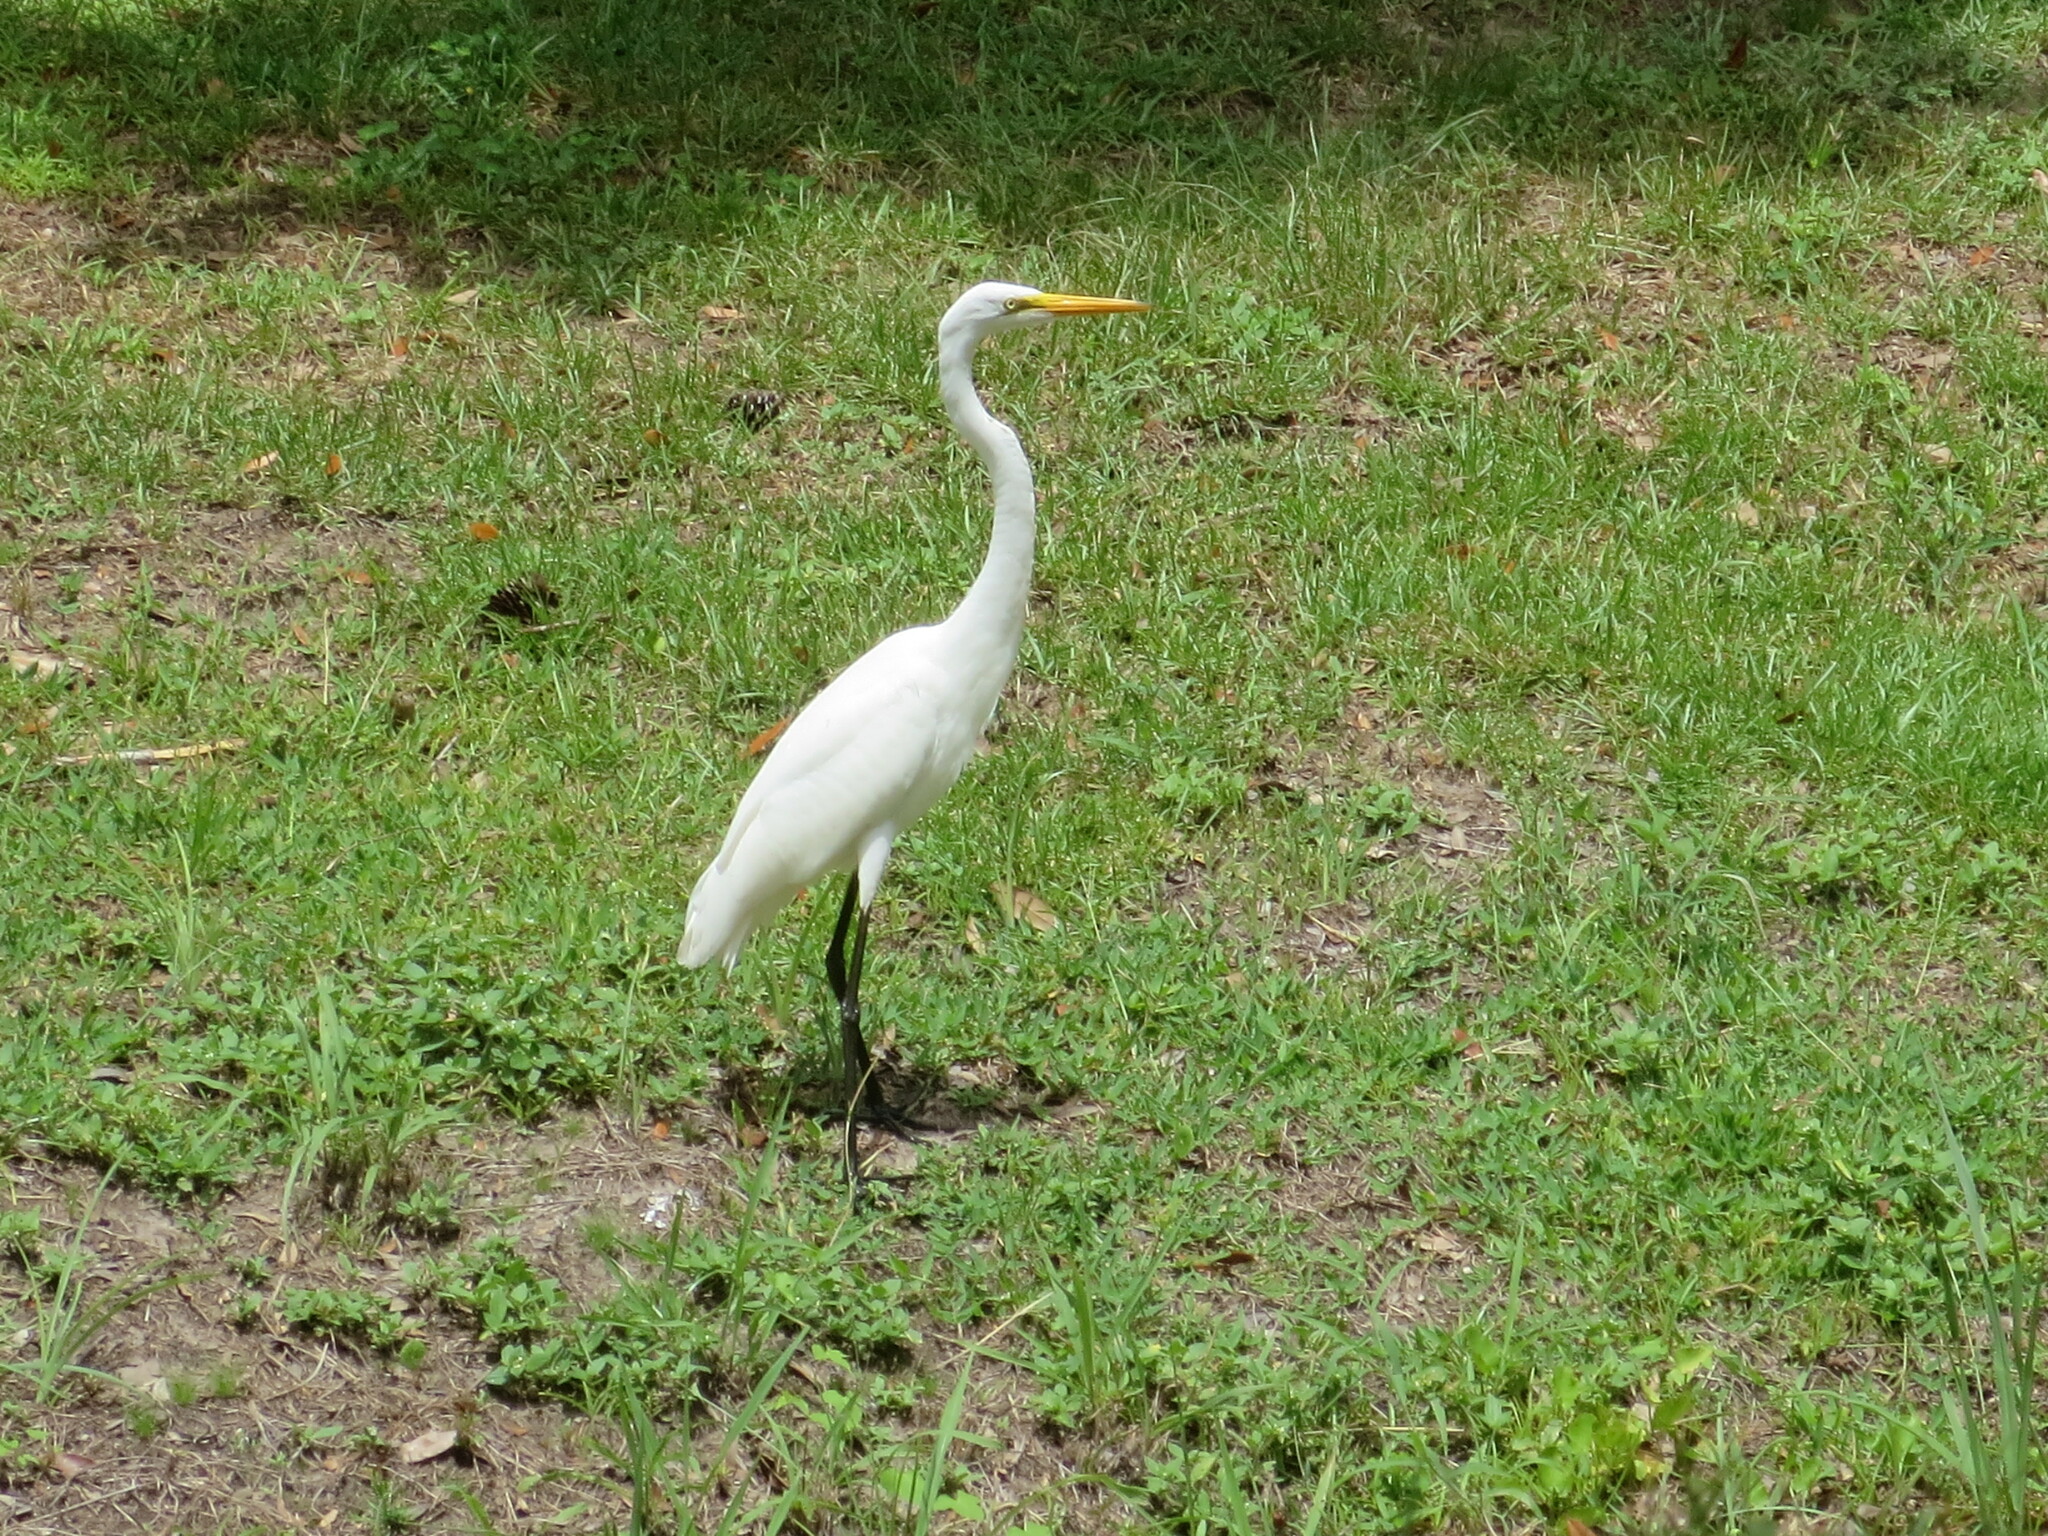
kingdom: Animalia
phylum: Chordata
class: Aves
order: Pelecaniformes
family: Ardeidae
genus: Ardea
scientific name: Ardea alba
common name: Great egret
